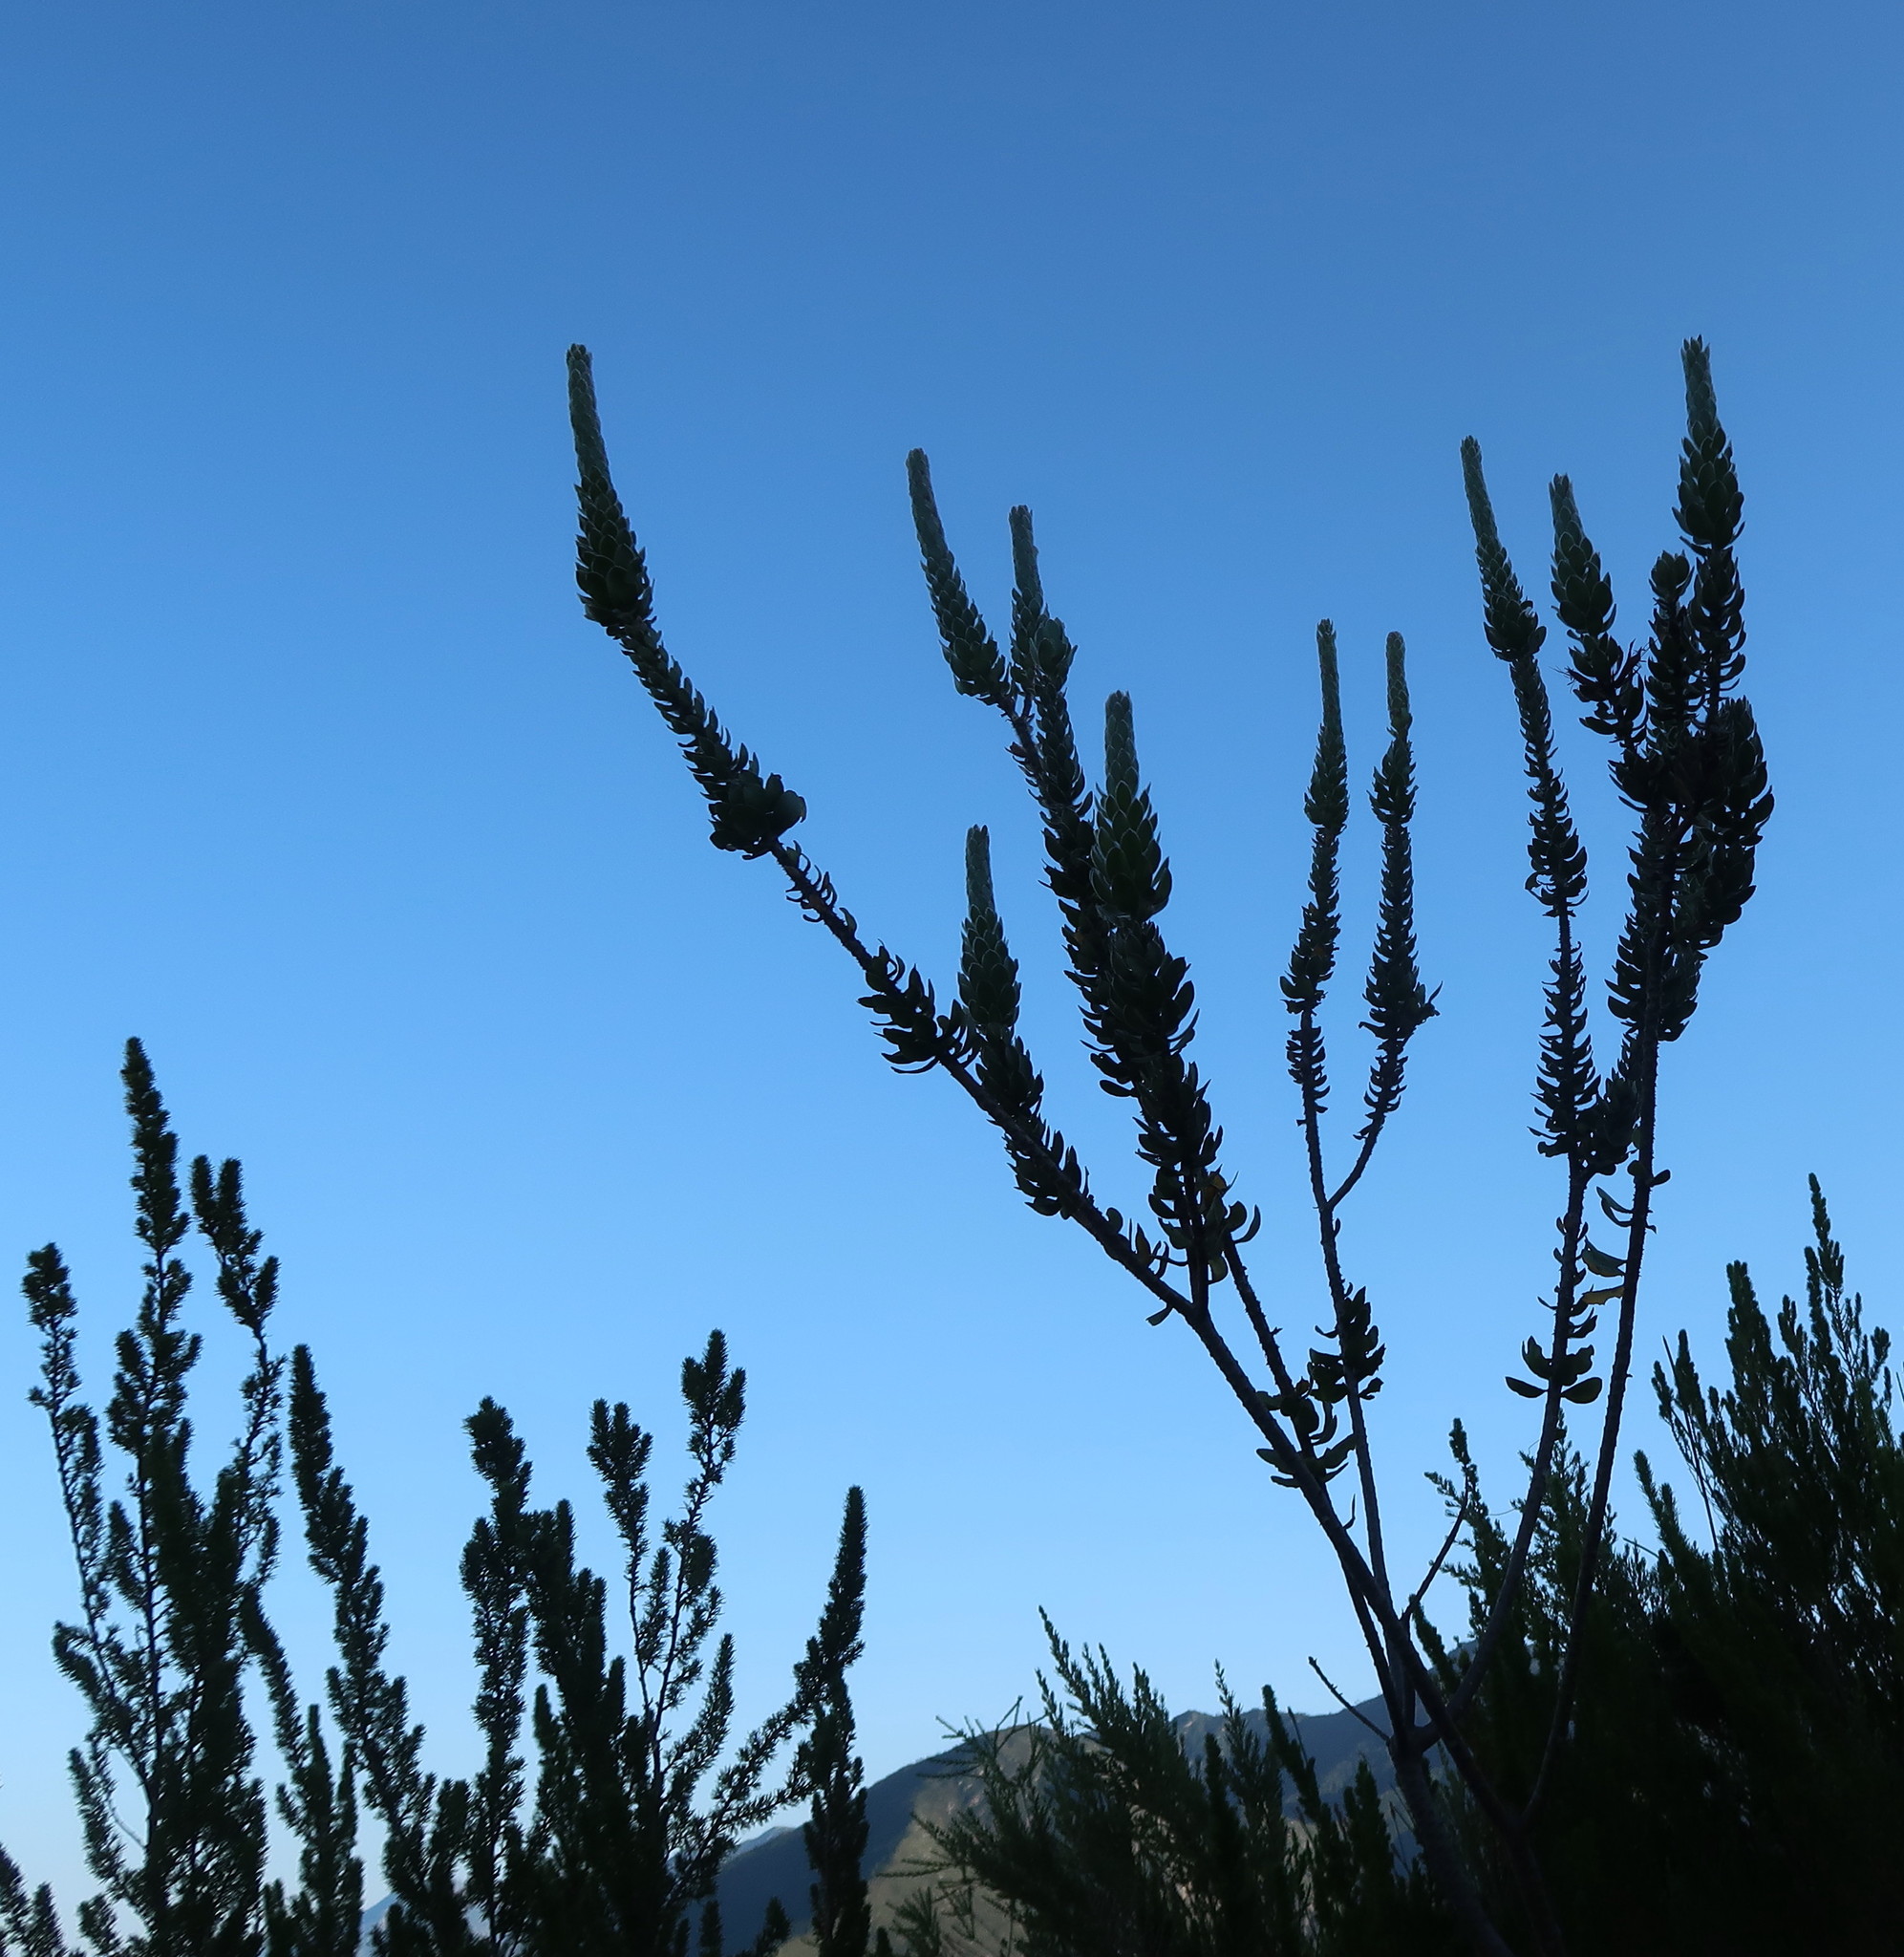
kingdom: Plantae
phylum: Tracheophyta
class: Magnoliopsida
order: Proteales
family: Proteaceae
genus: Mimetes
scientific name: Mimetes pauciflora
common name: Three-flowered pagoda
